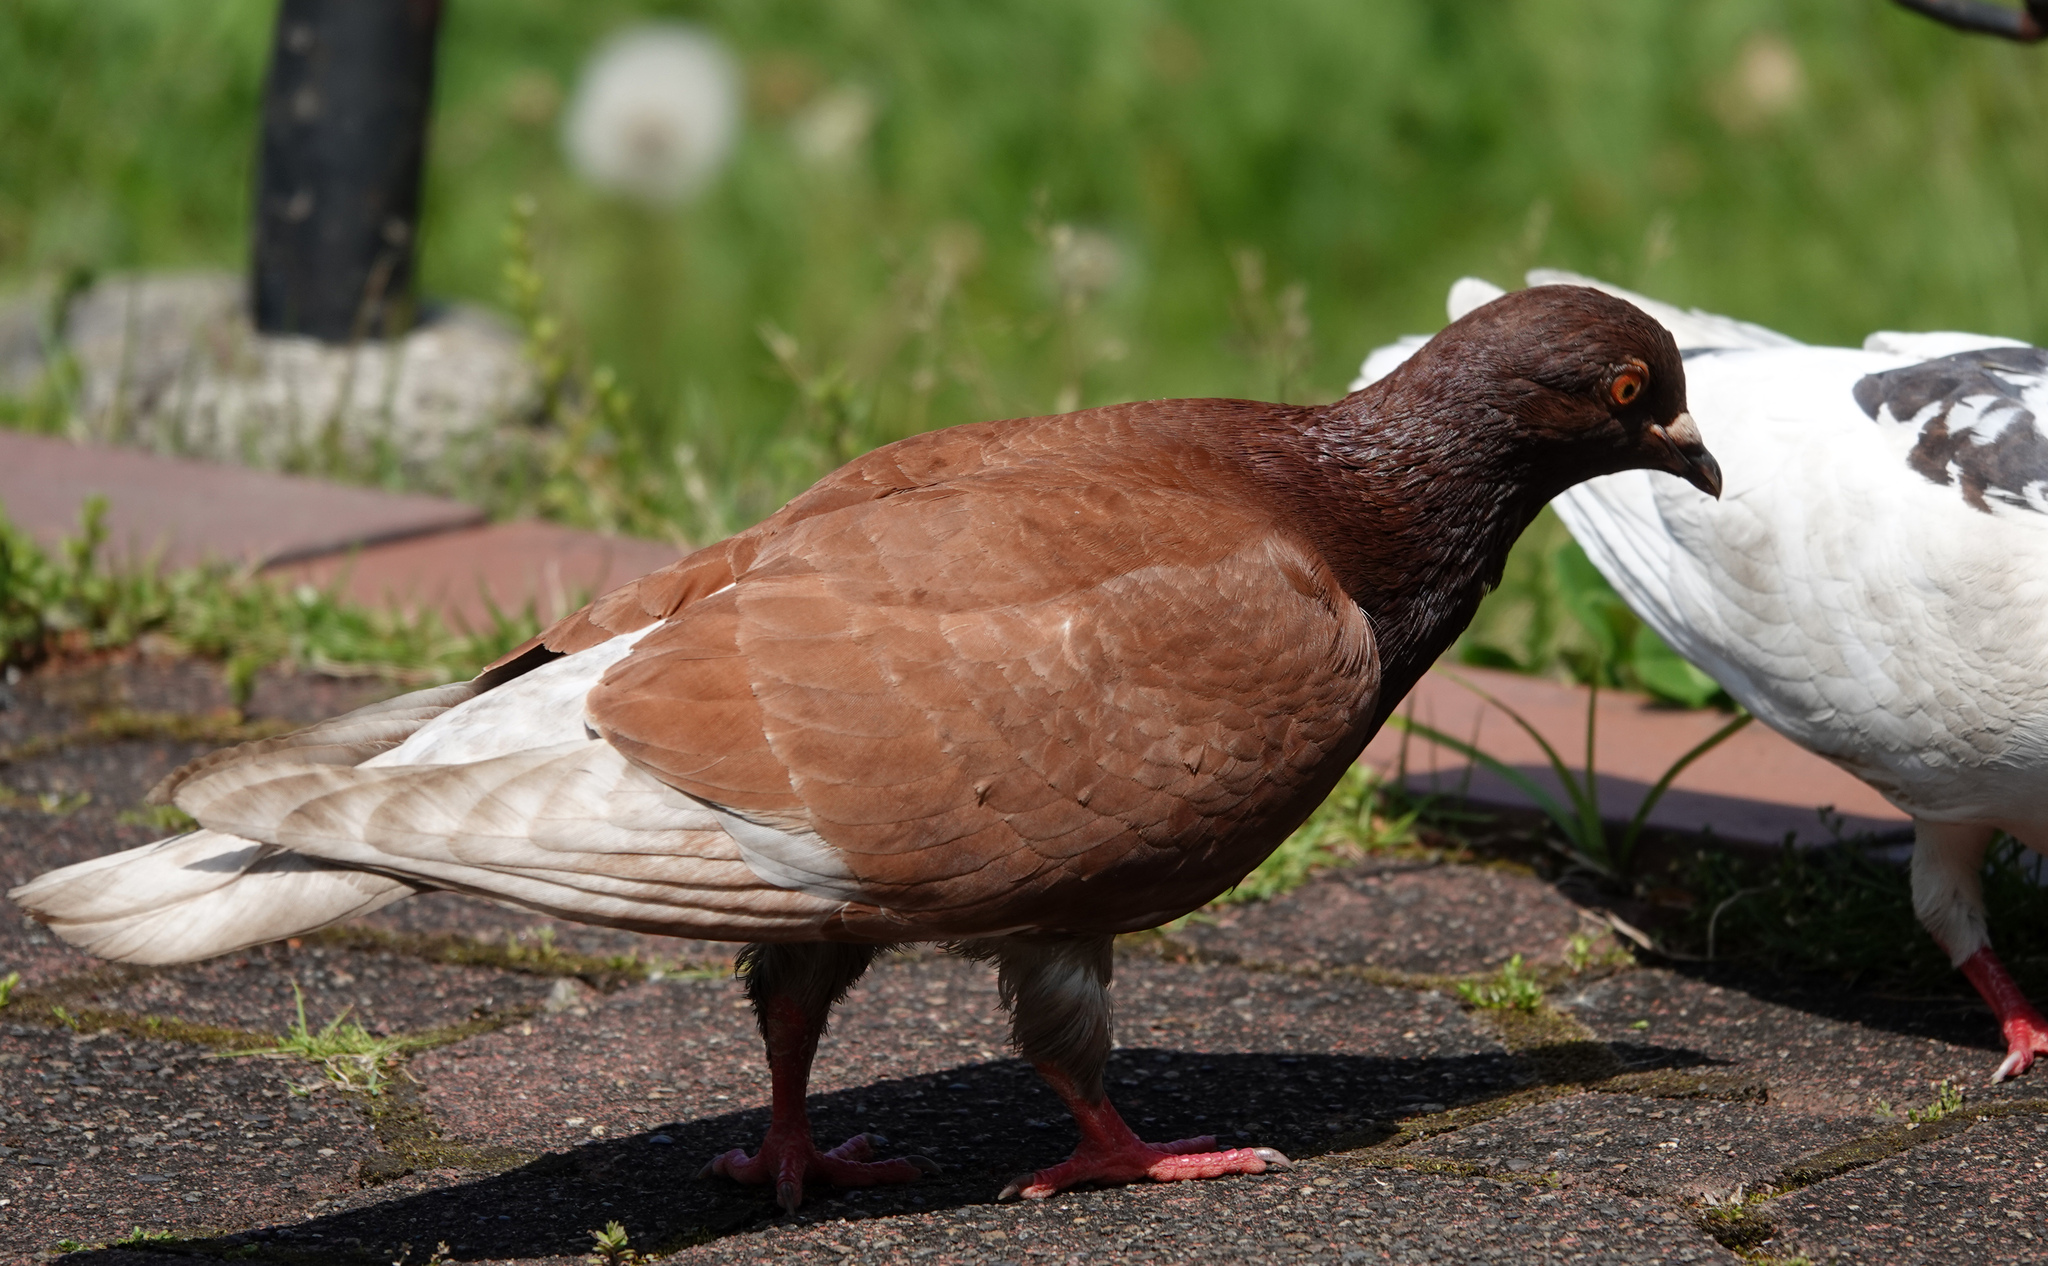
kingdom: Animalia
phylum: Chordata
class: Aves
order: Columbiformes
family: Columbidae
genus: Columba
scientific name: Columba livia
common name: Rock pigeon
